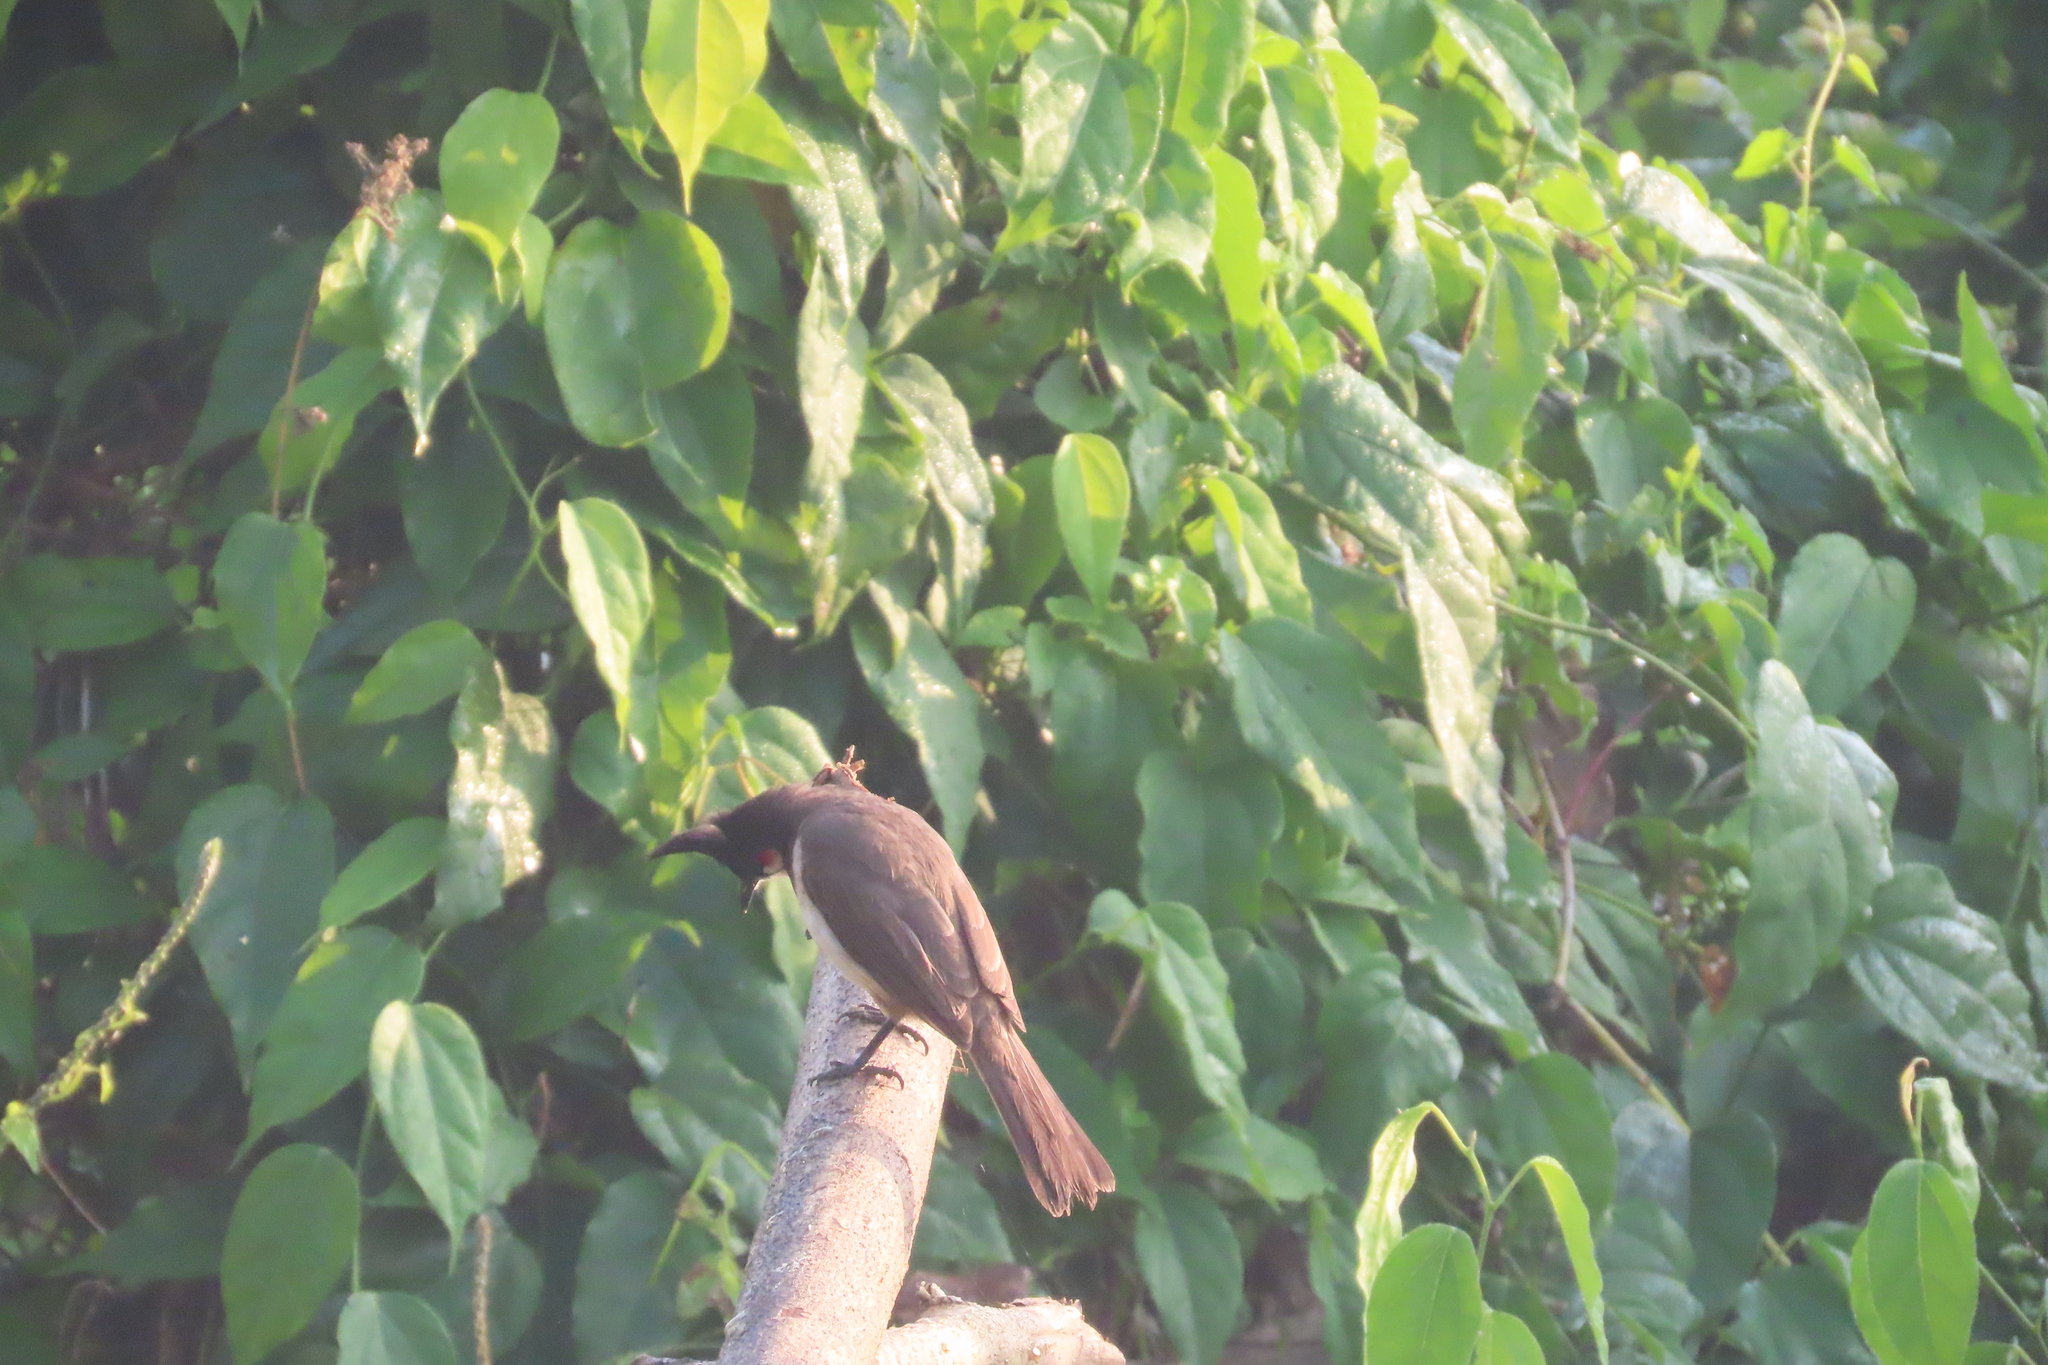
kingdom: Animalia
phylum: Chordata
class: Aves
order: Passeriformes
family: Pycnonotidae
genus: Pycnonotus
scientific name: Pycnonotus jocosus
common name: Red-whiskered bulbul
